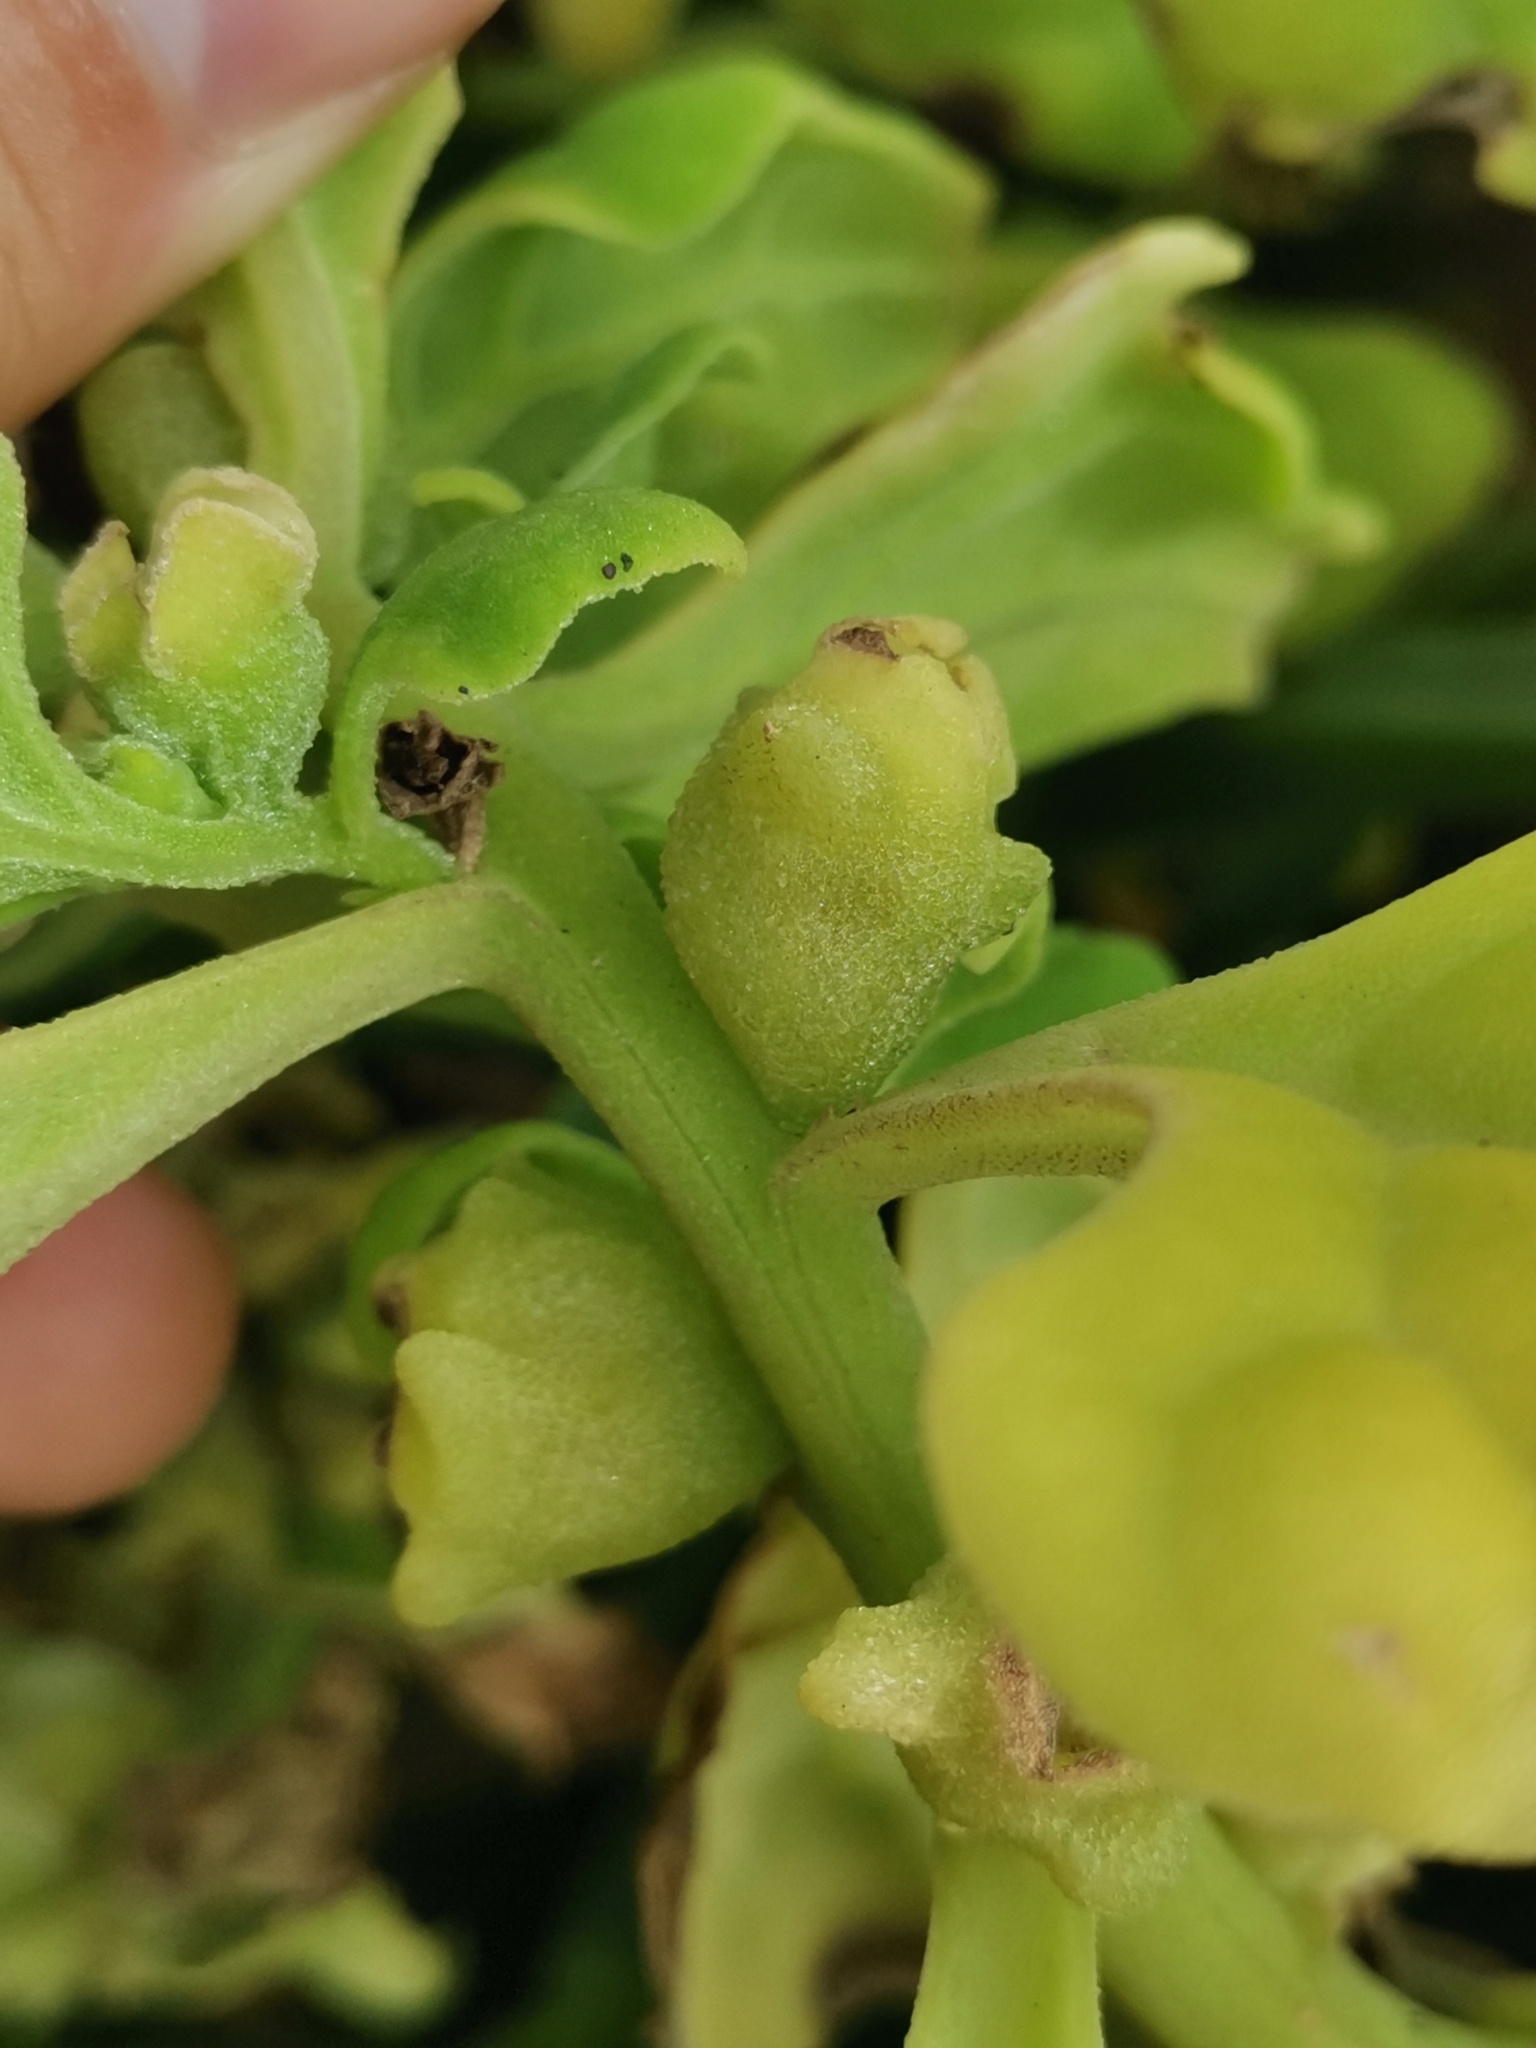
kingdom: Plantae
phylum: Tracheophyta
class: Magnoliopsida
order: Caryophyllales
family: Aizoaceae
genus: Tetragonia
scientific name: Tetragonia tetragonoides
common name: New zealand-spinach
